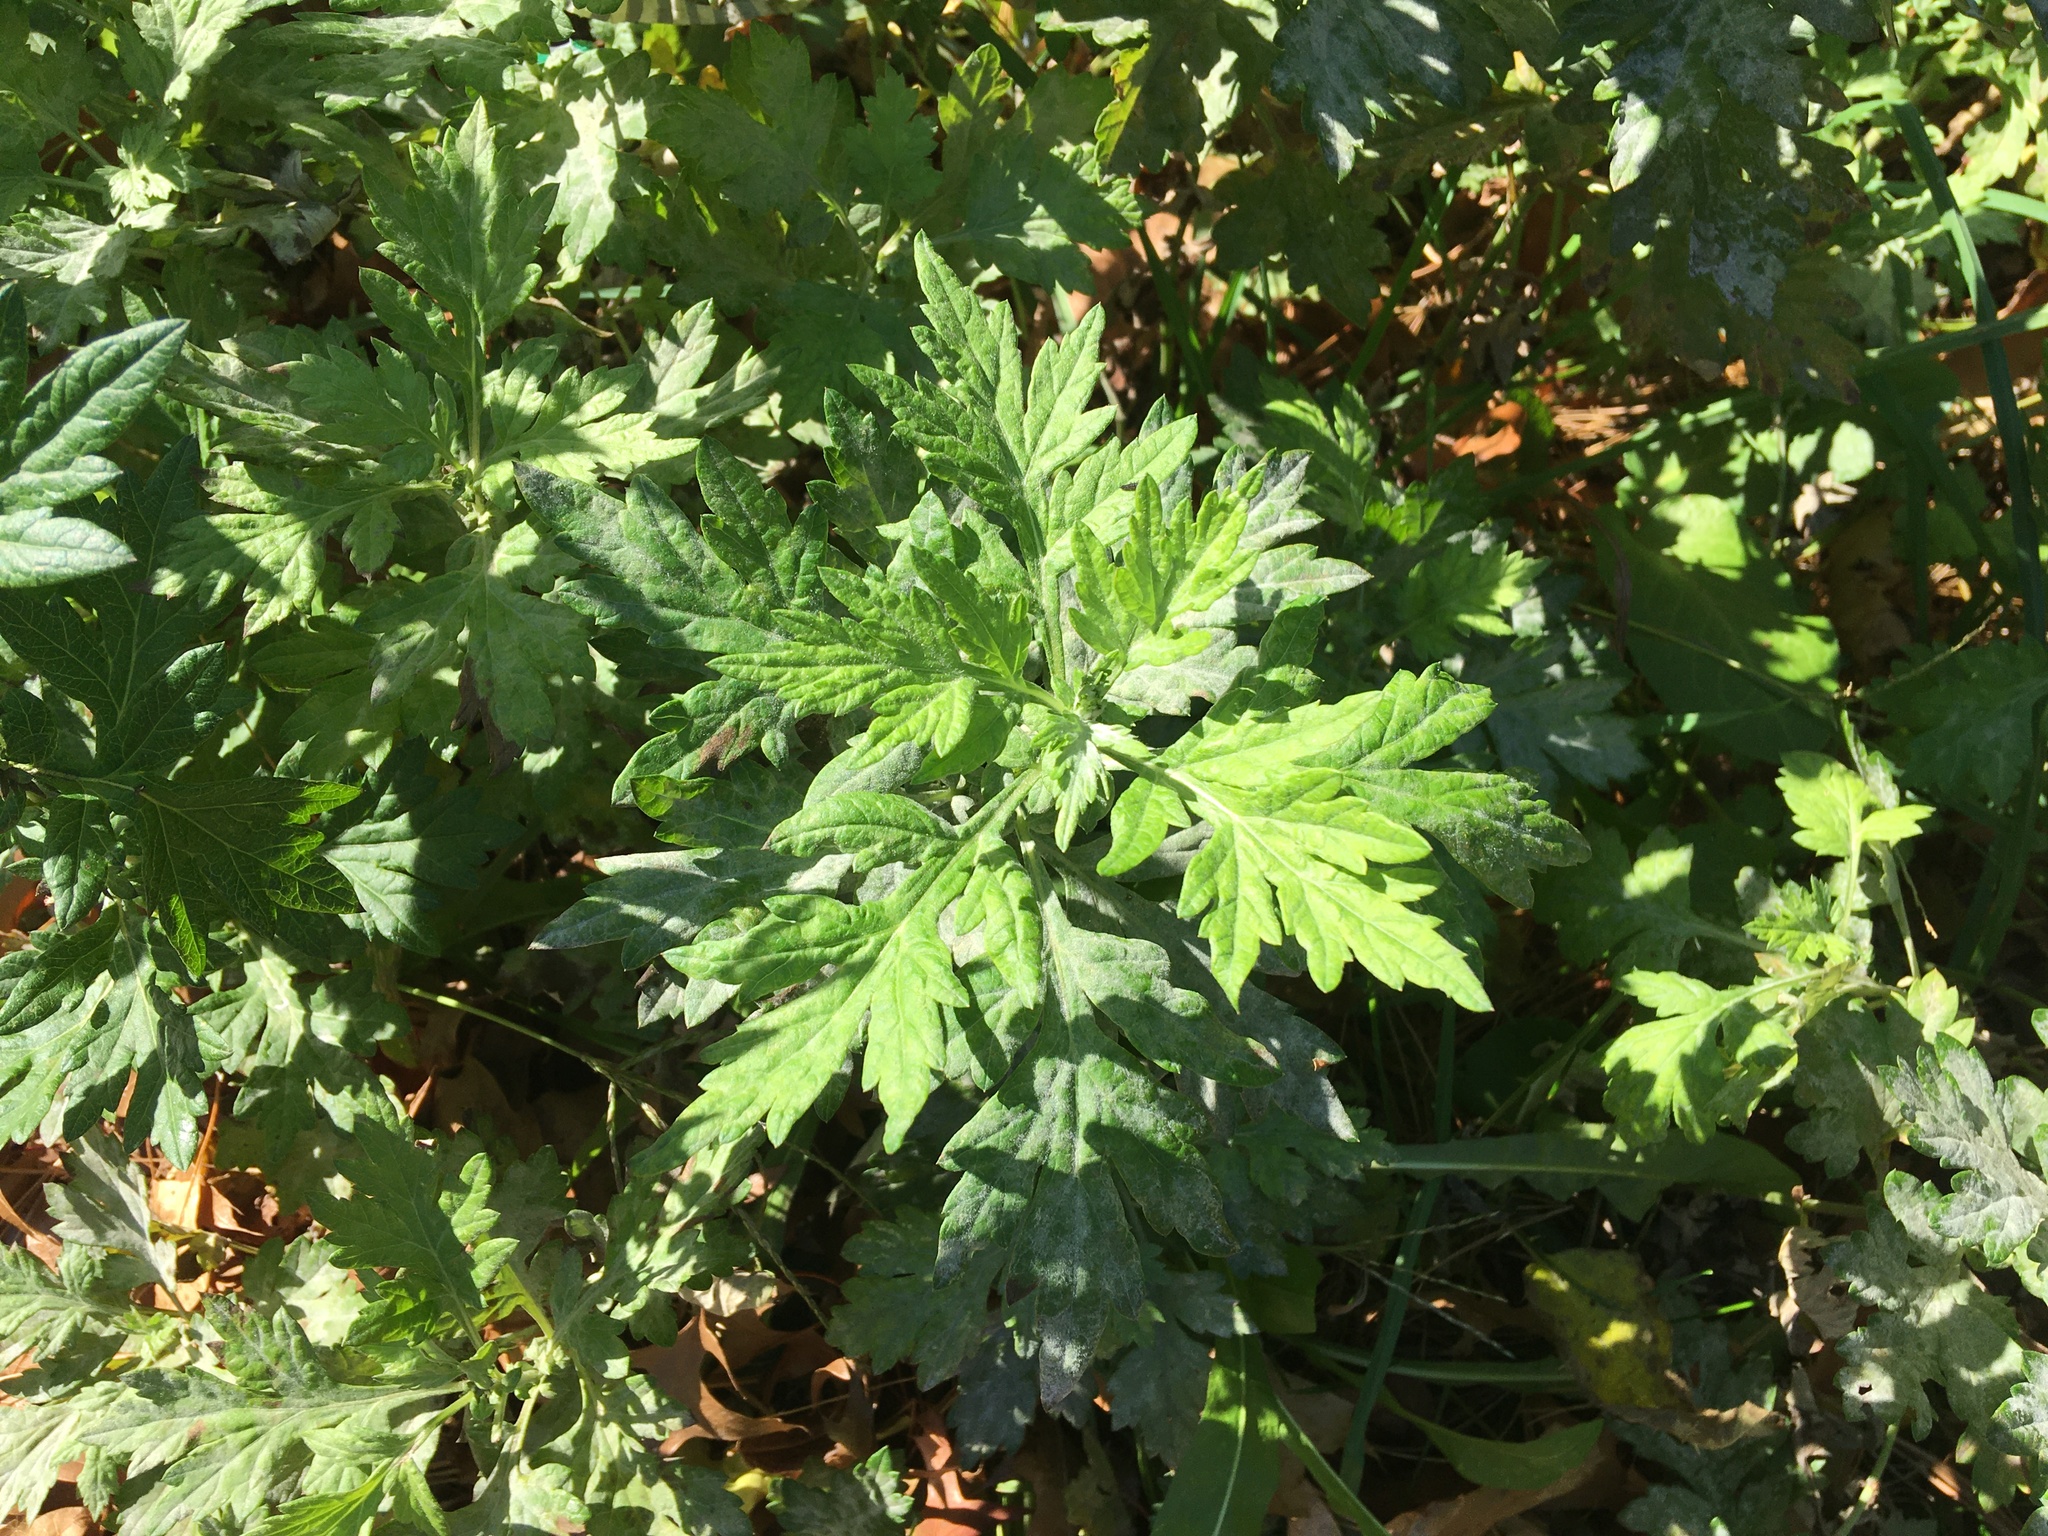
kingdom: Plantae
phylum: Tracheophyta
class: Magnoliopsida
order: Asterales
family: Asteraceae
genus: Artemisia
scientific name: Artemisia vulgaris
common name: Mugwort
